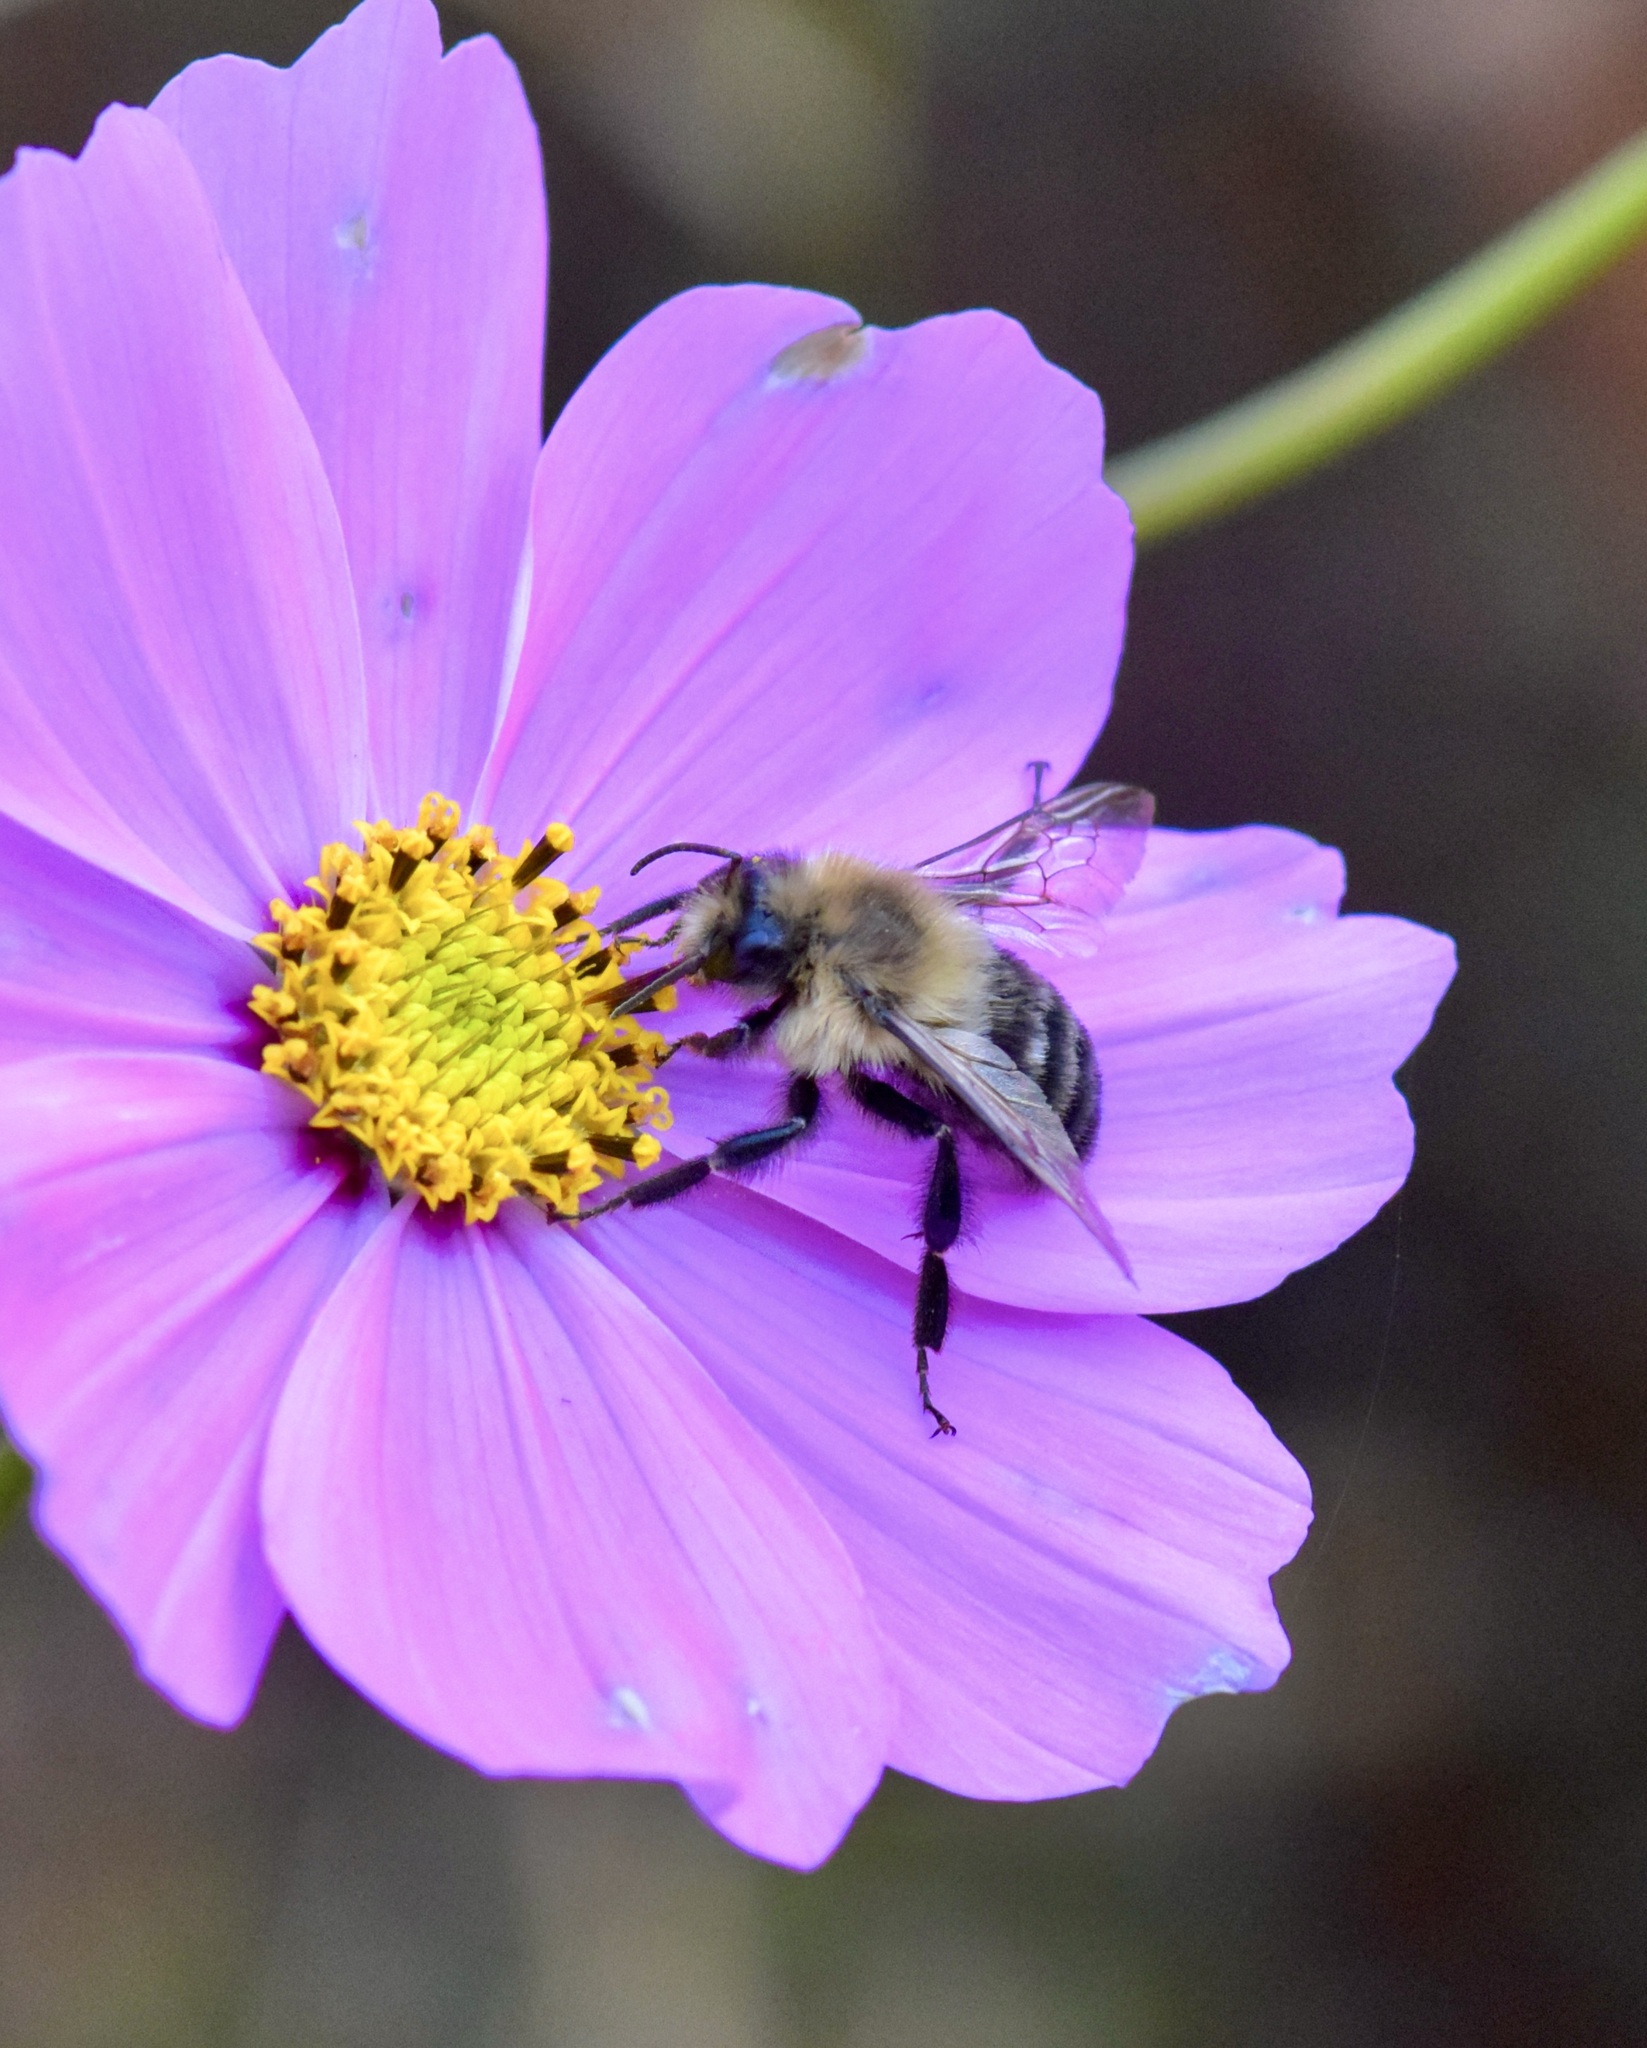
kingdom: Animalia
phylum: Arthropoda
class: Insecta
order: Hymenoptera
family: Apidae
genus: Bombus
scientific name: Bombus impatiens
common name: Common eastern bumble bee
